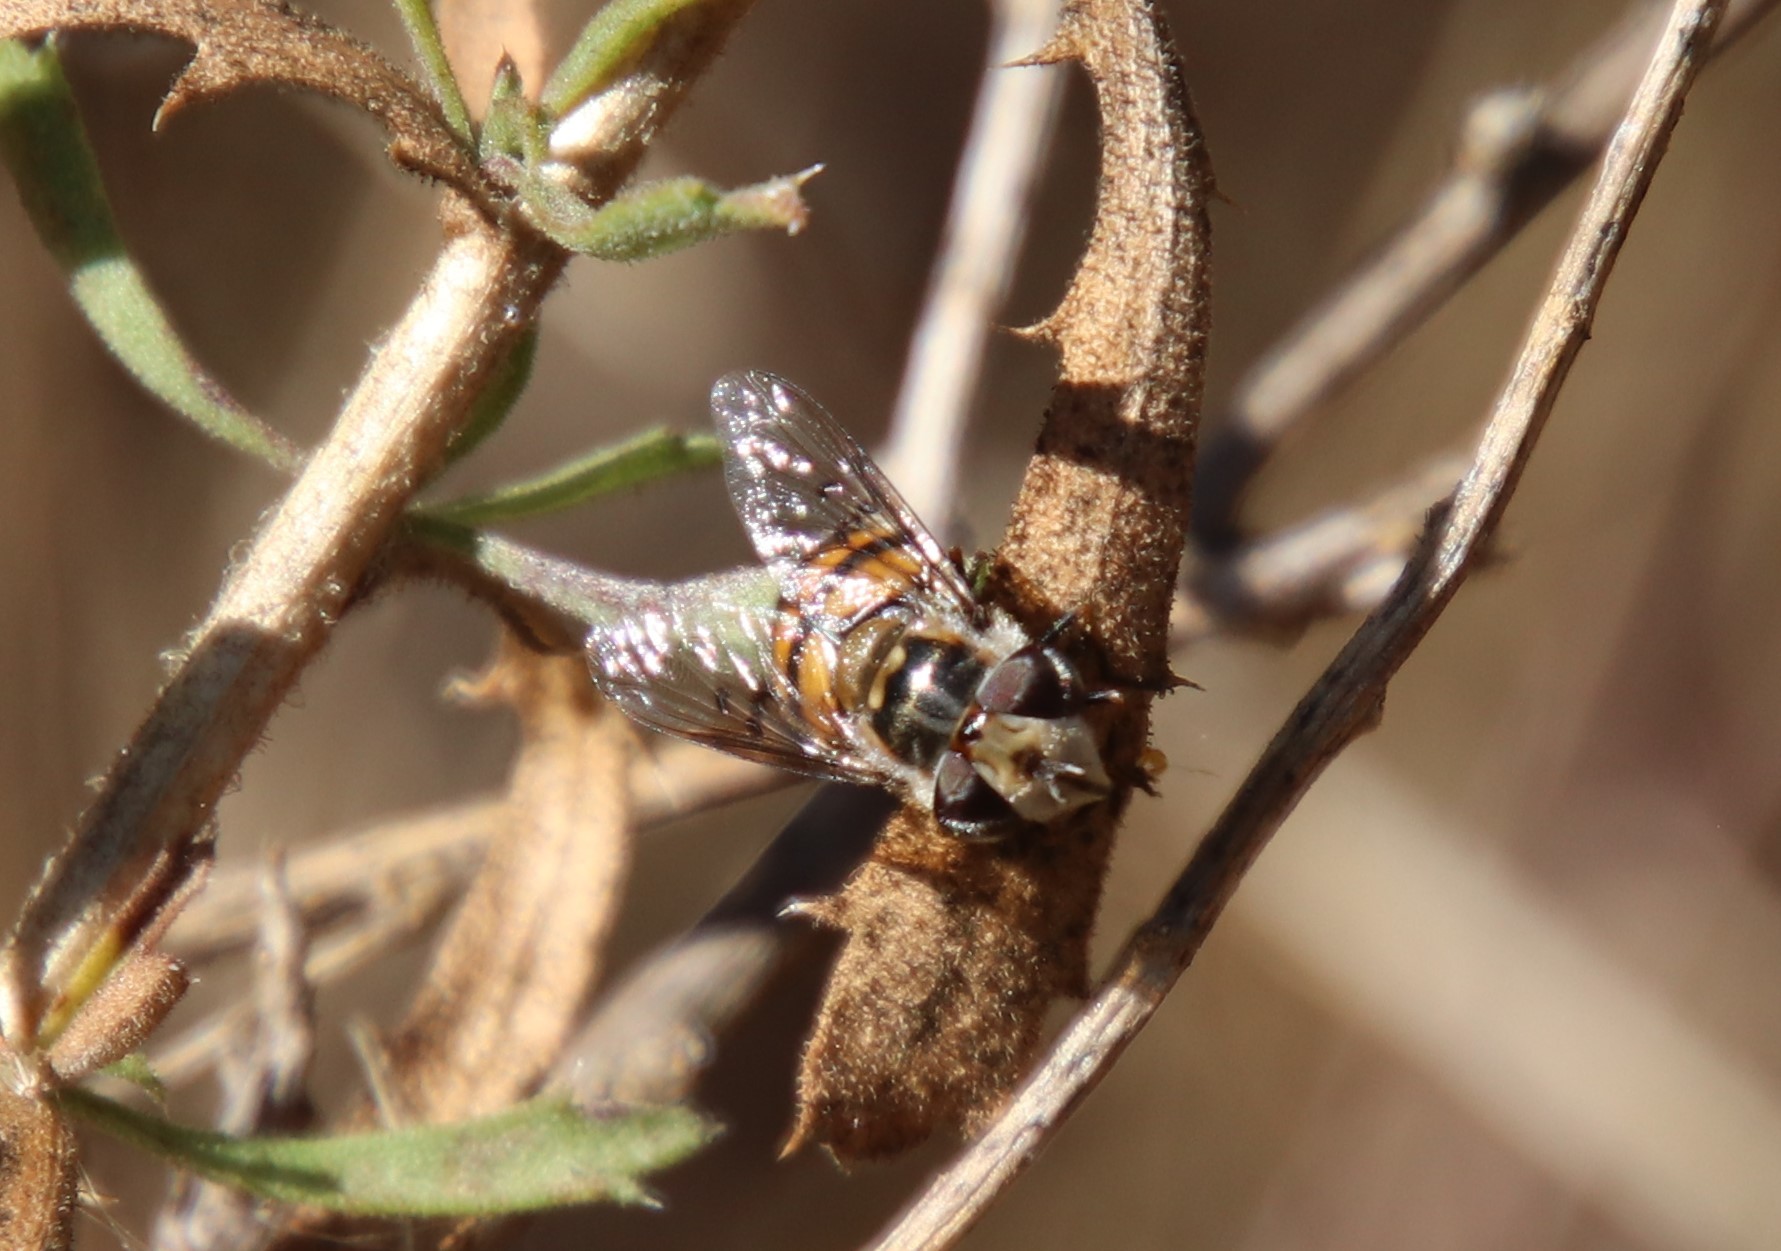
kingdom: Animalia
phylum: Arthropoda
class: Insecta
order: Diptera
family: Syrphidae
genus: Copestylum
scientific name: Copestylum avidum
